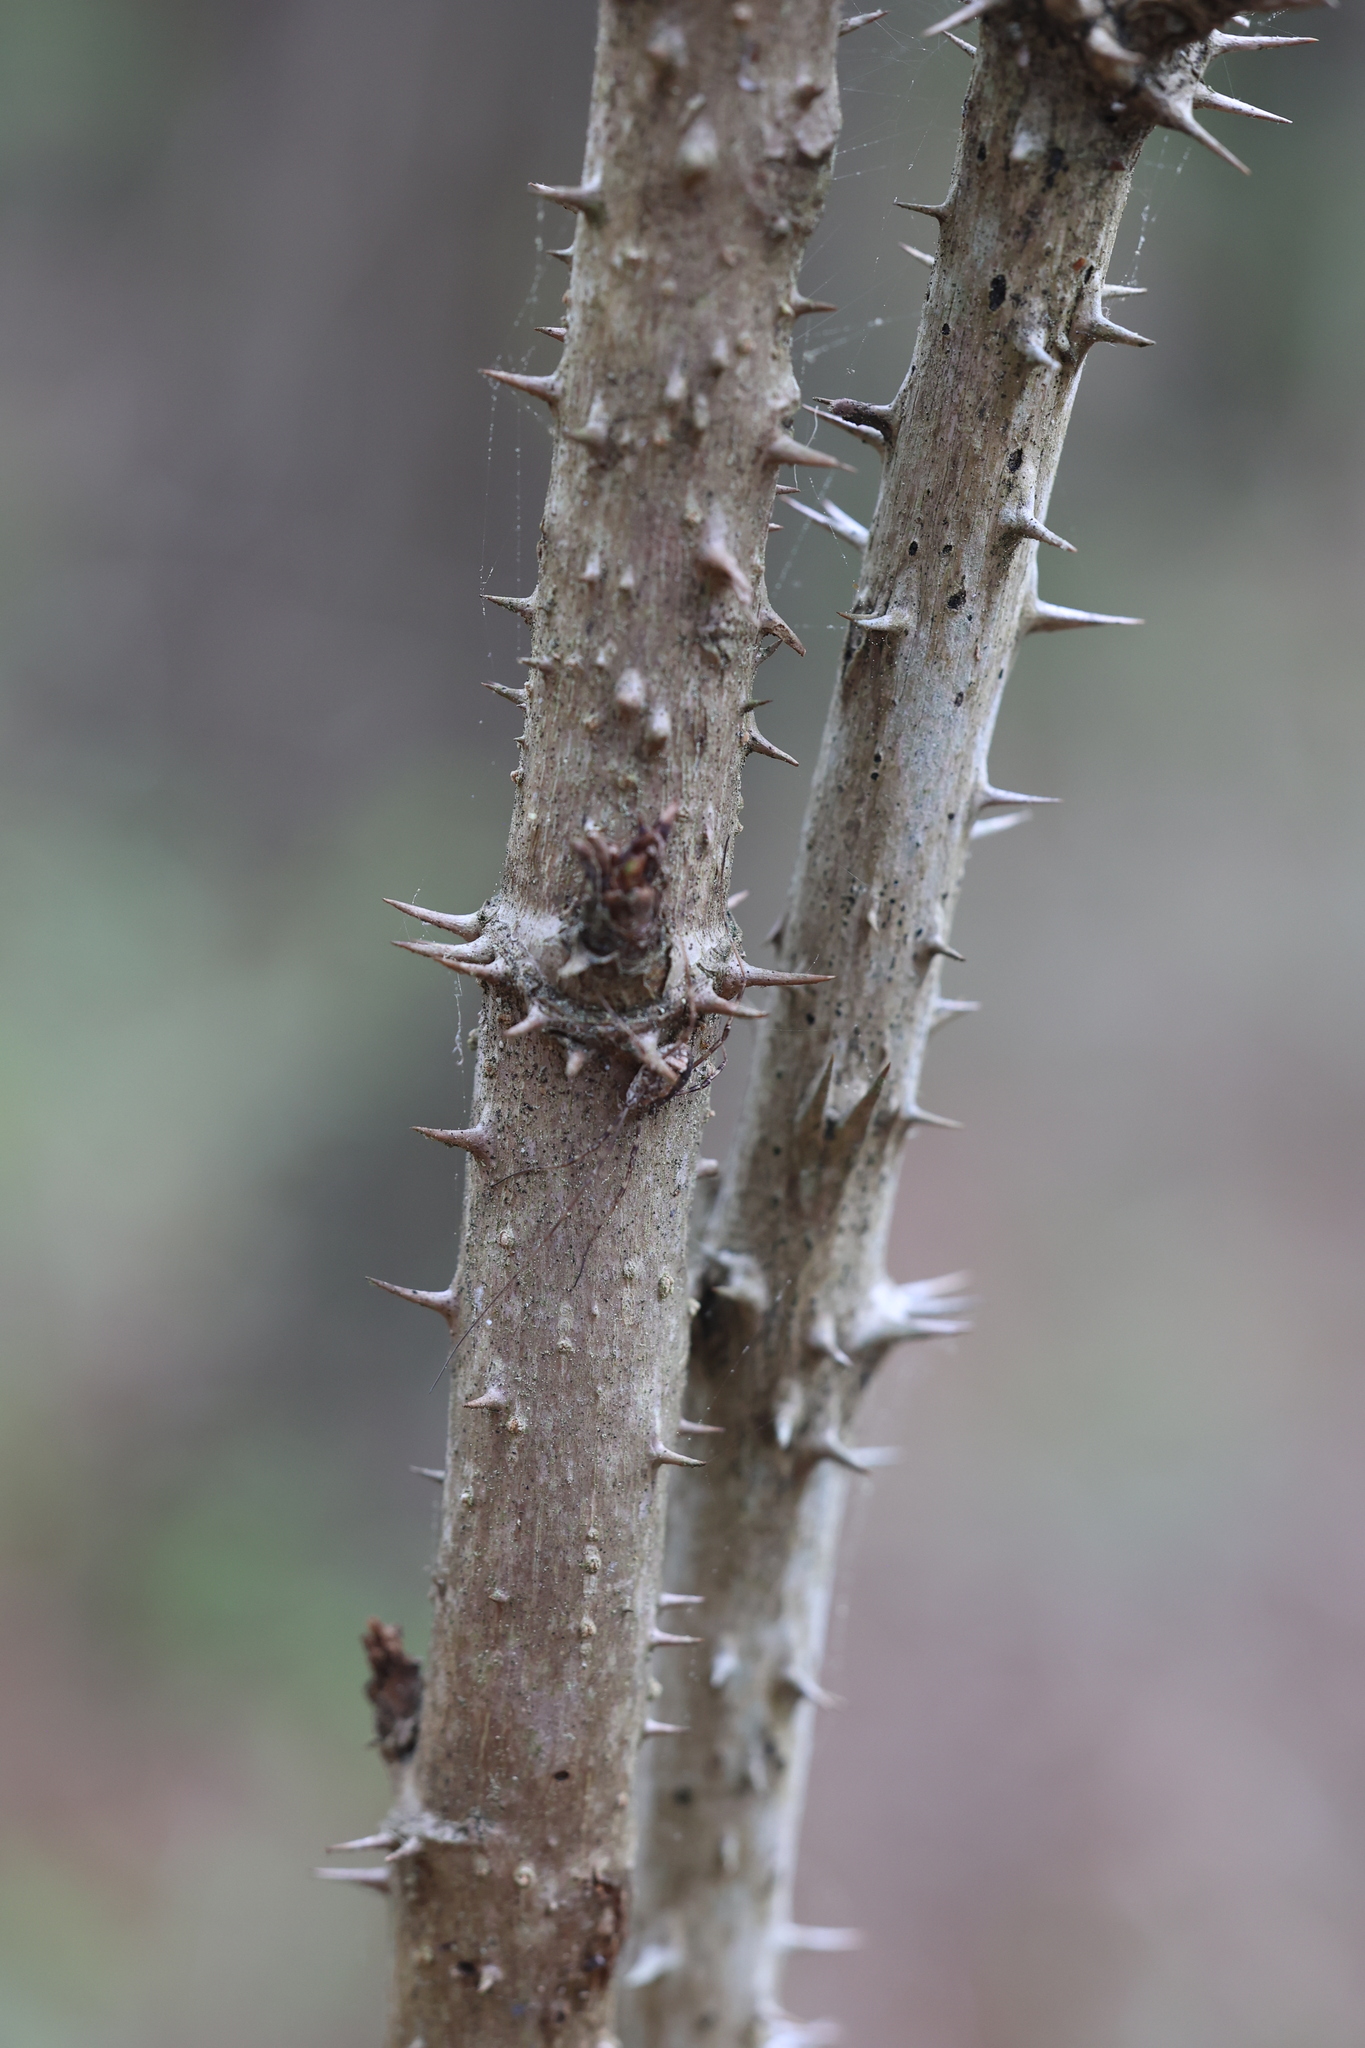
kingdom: Plantae
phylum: Tracheophyta
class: Magnoliopsida
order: Apiales
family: Araliaceae
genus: Aralia
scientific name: Aralia spinosa
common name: Hercules'-club
